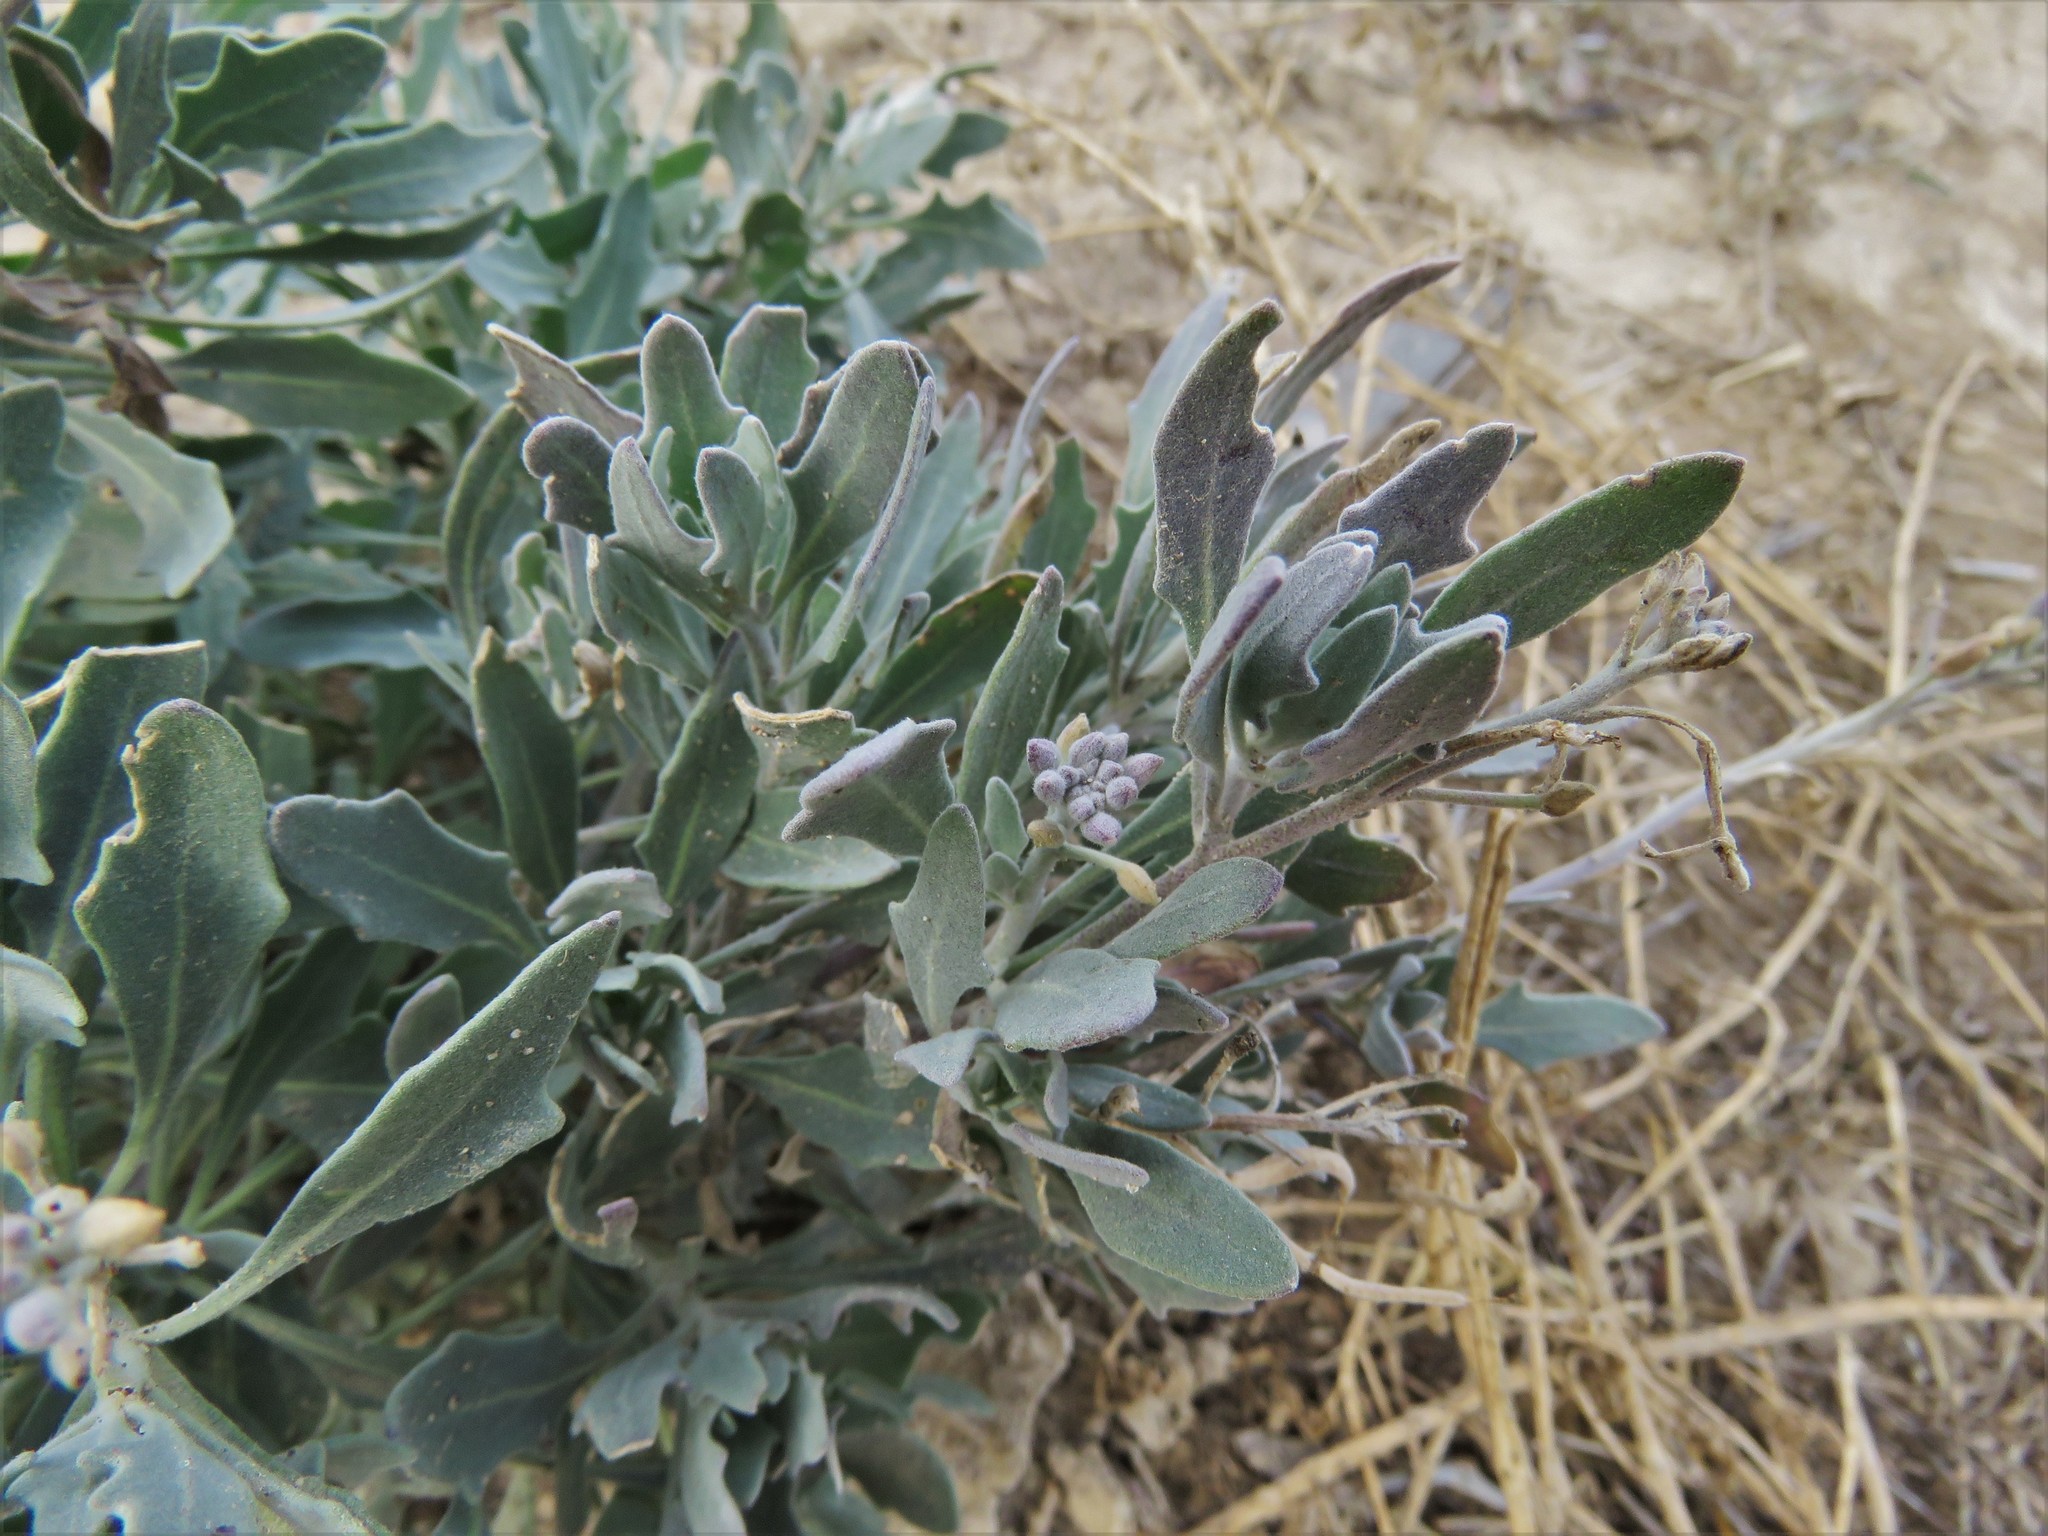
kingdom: Plantae
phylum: Tracheophyta
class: Magnoliopsida
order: Brassicales
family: Brassicaceae
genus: Nerisyrenia
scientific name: Nerisyrenia camporum
